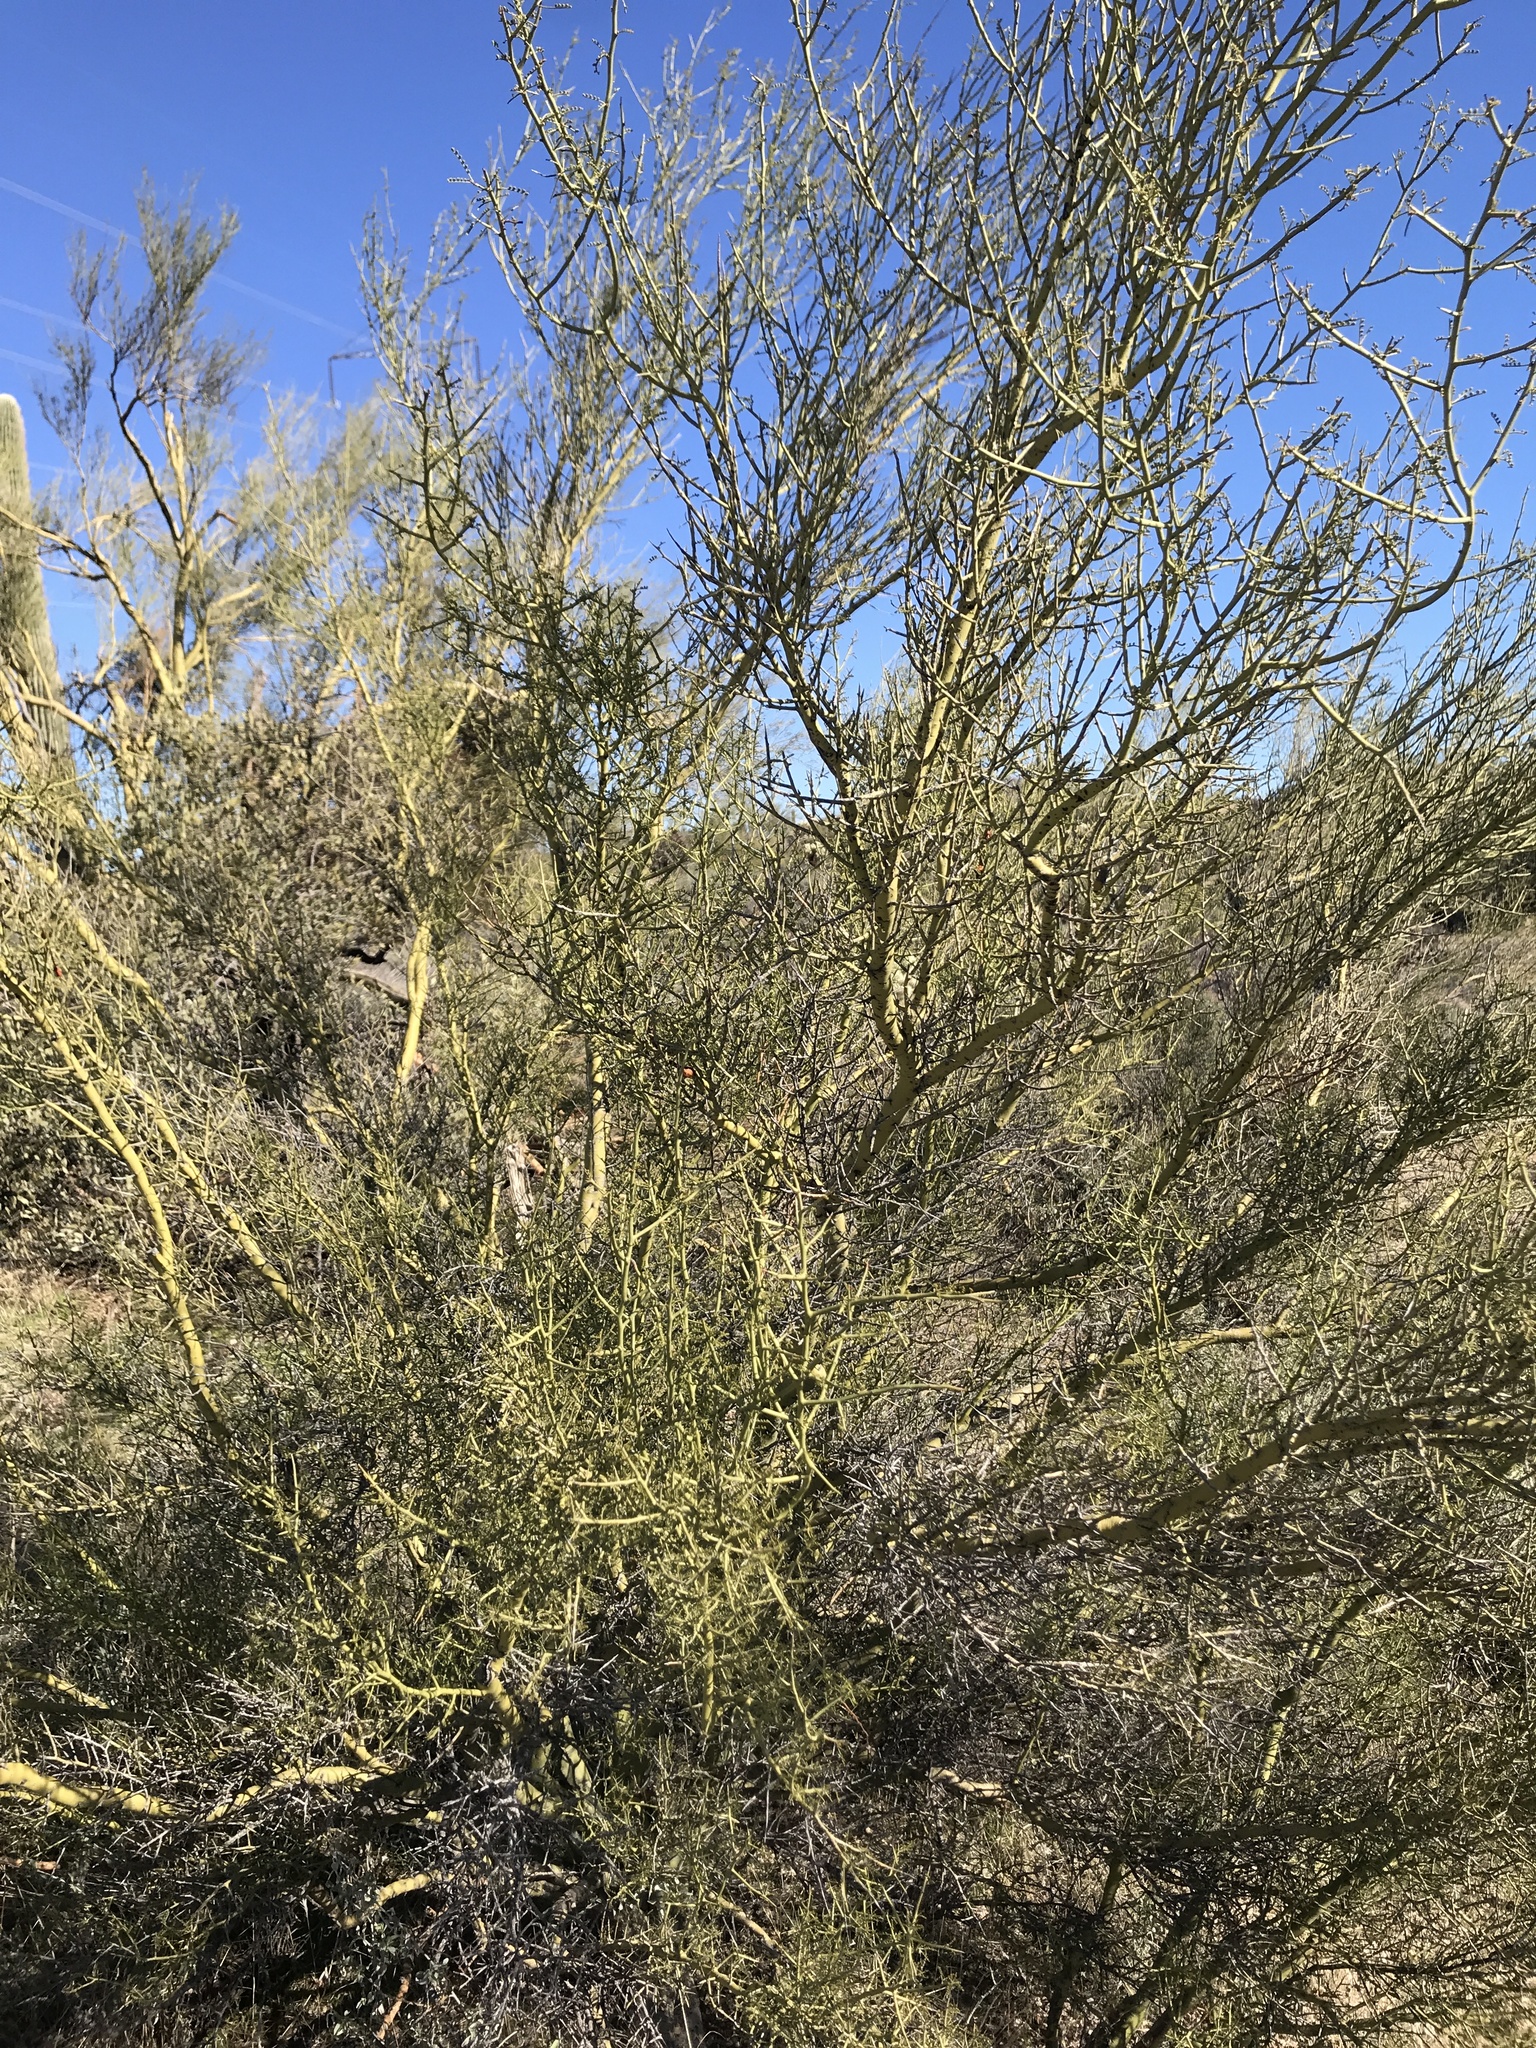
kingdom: Plantae
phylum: Tracheophyta
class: Magnoliopsida
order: Fabales
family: Fabaceae
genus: Parkinsonia
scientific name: Parkinsonia microphylla
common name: Yellow paloverde
